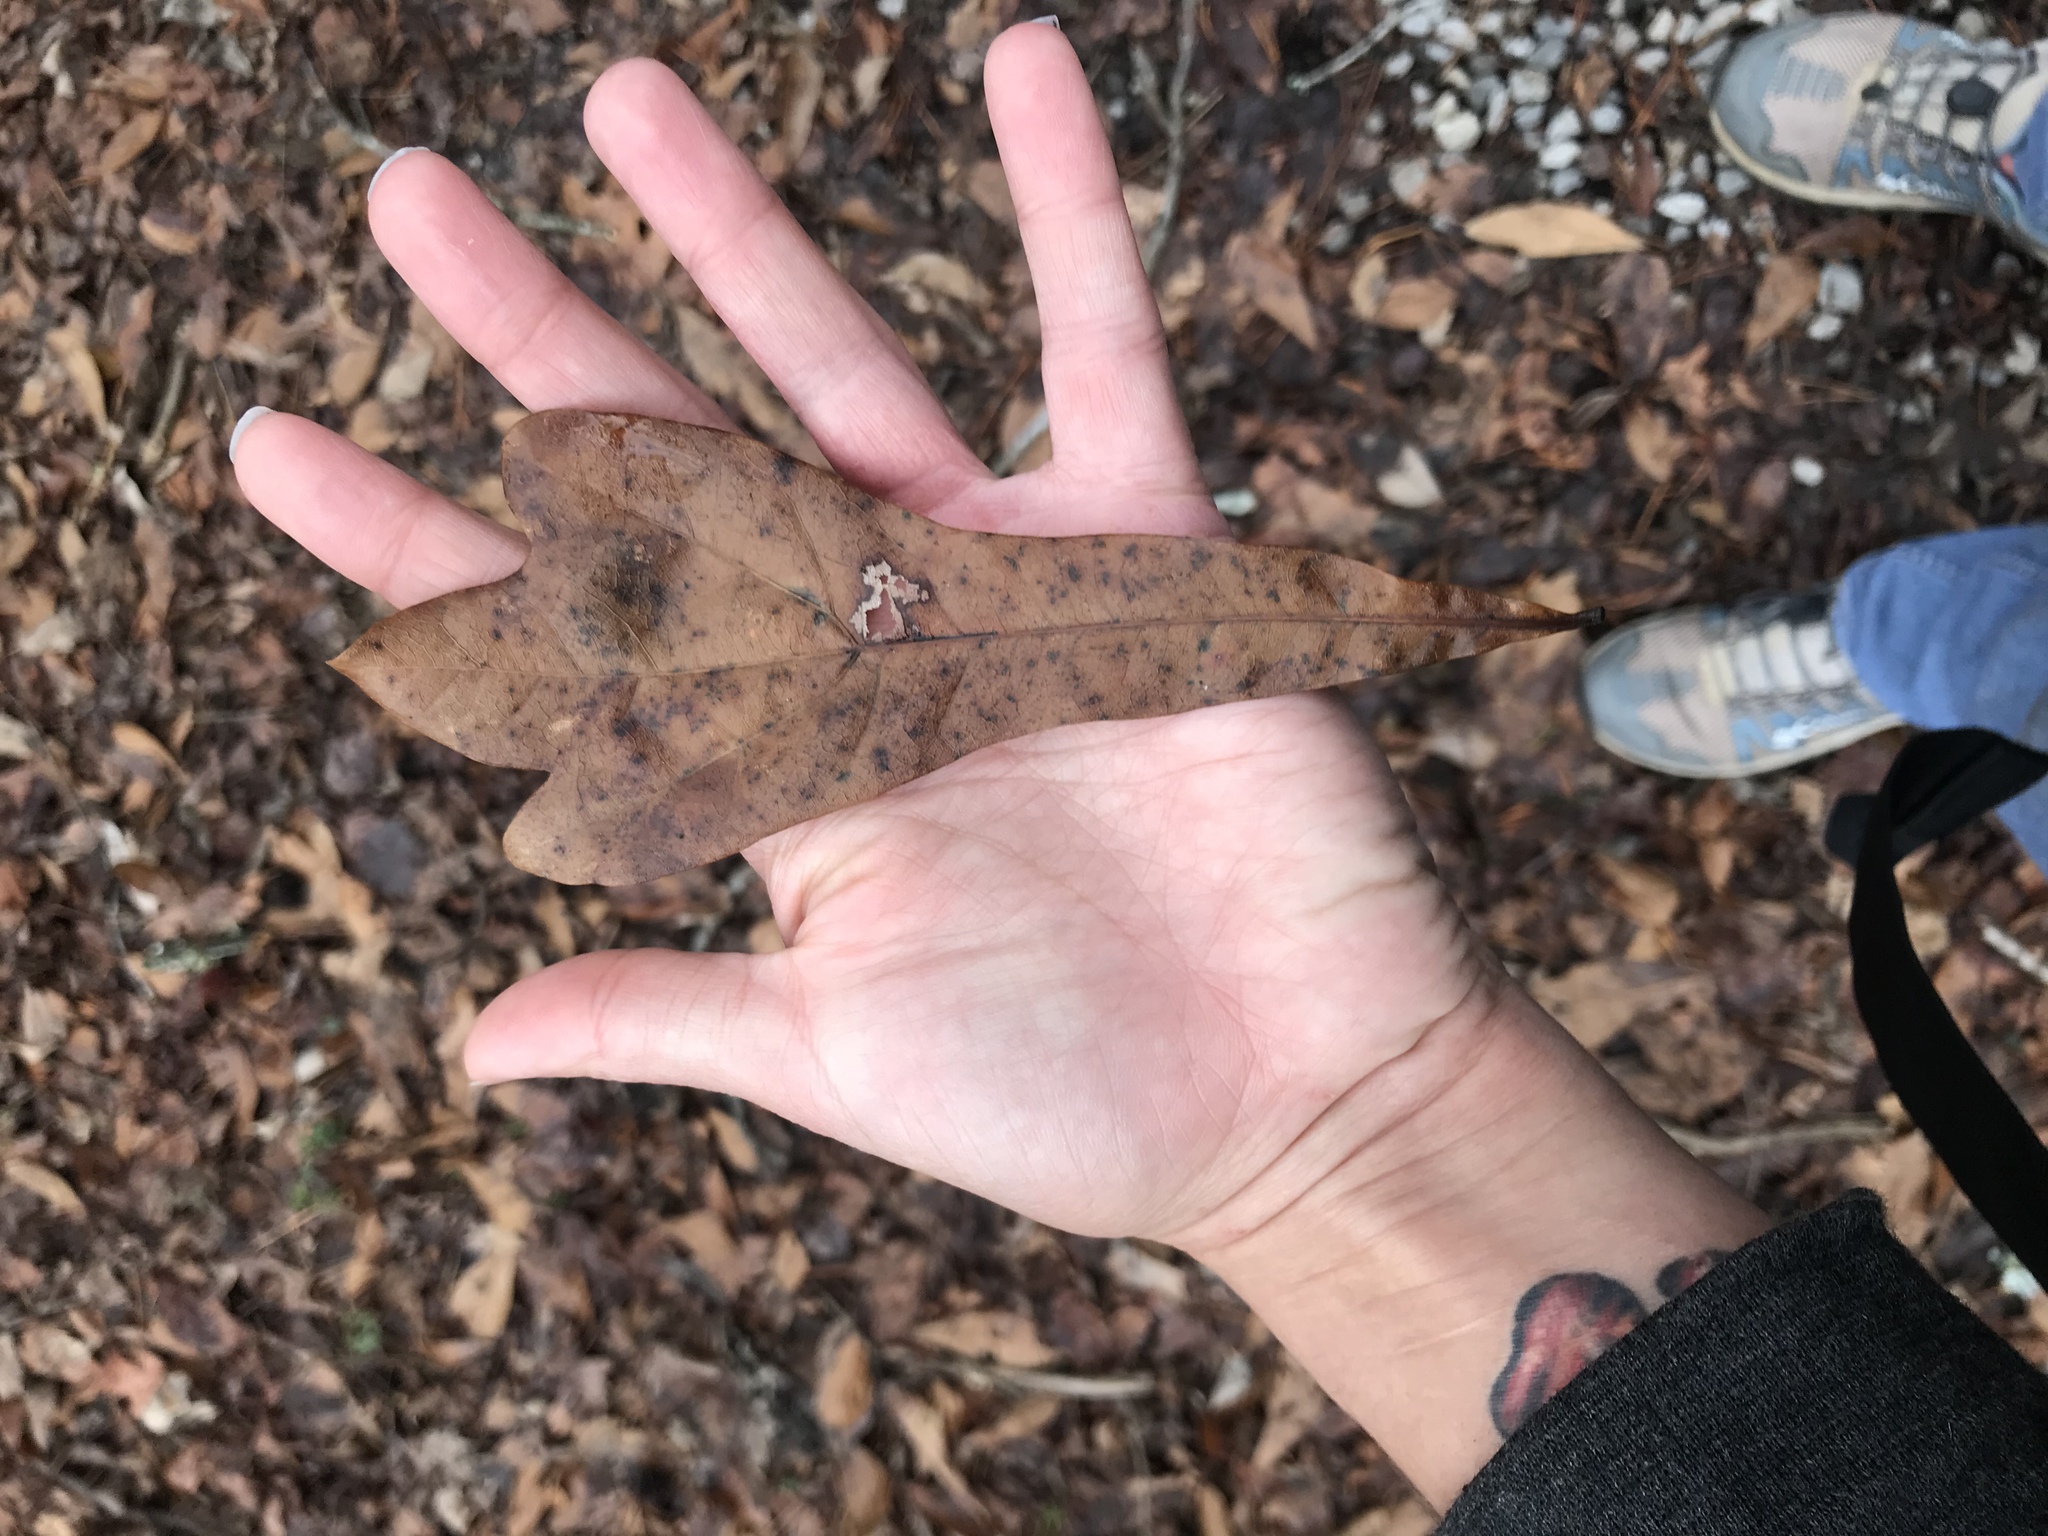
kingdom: Plantae
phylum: Tracheophyta
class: Magnoliopsida
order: Fagales
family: Fagaceae
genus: Quercus
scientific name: Quercus nigra
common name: Water oak
